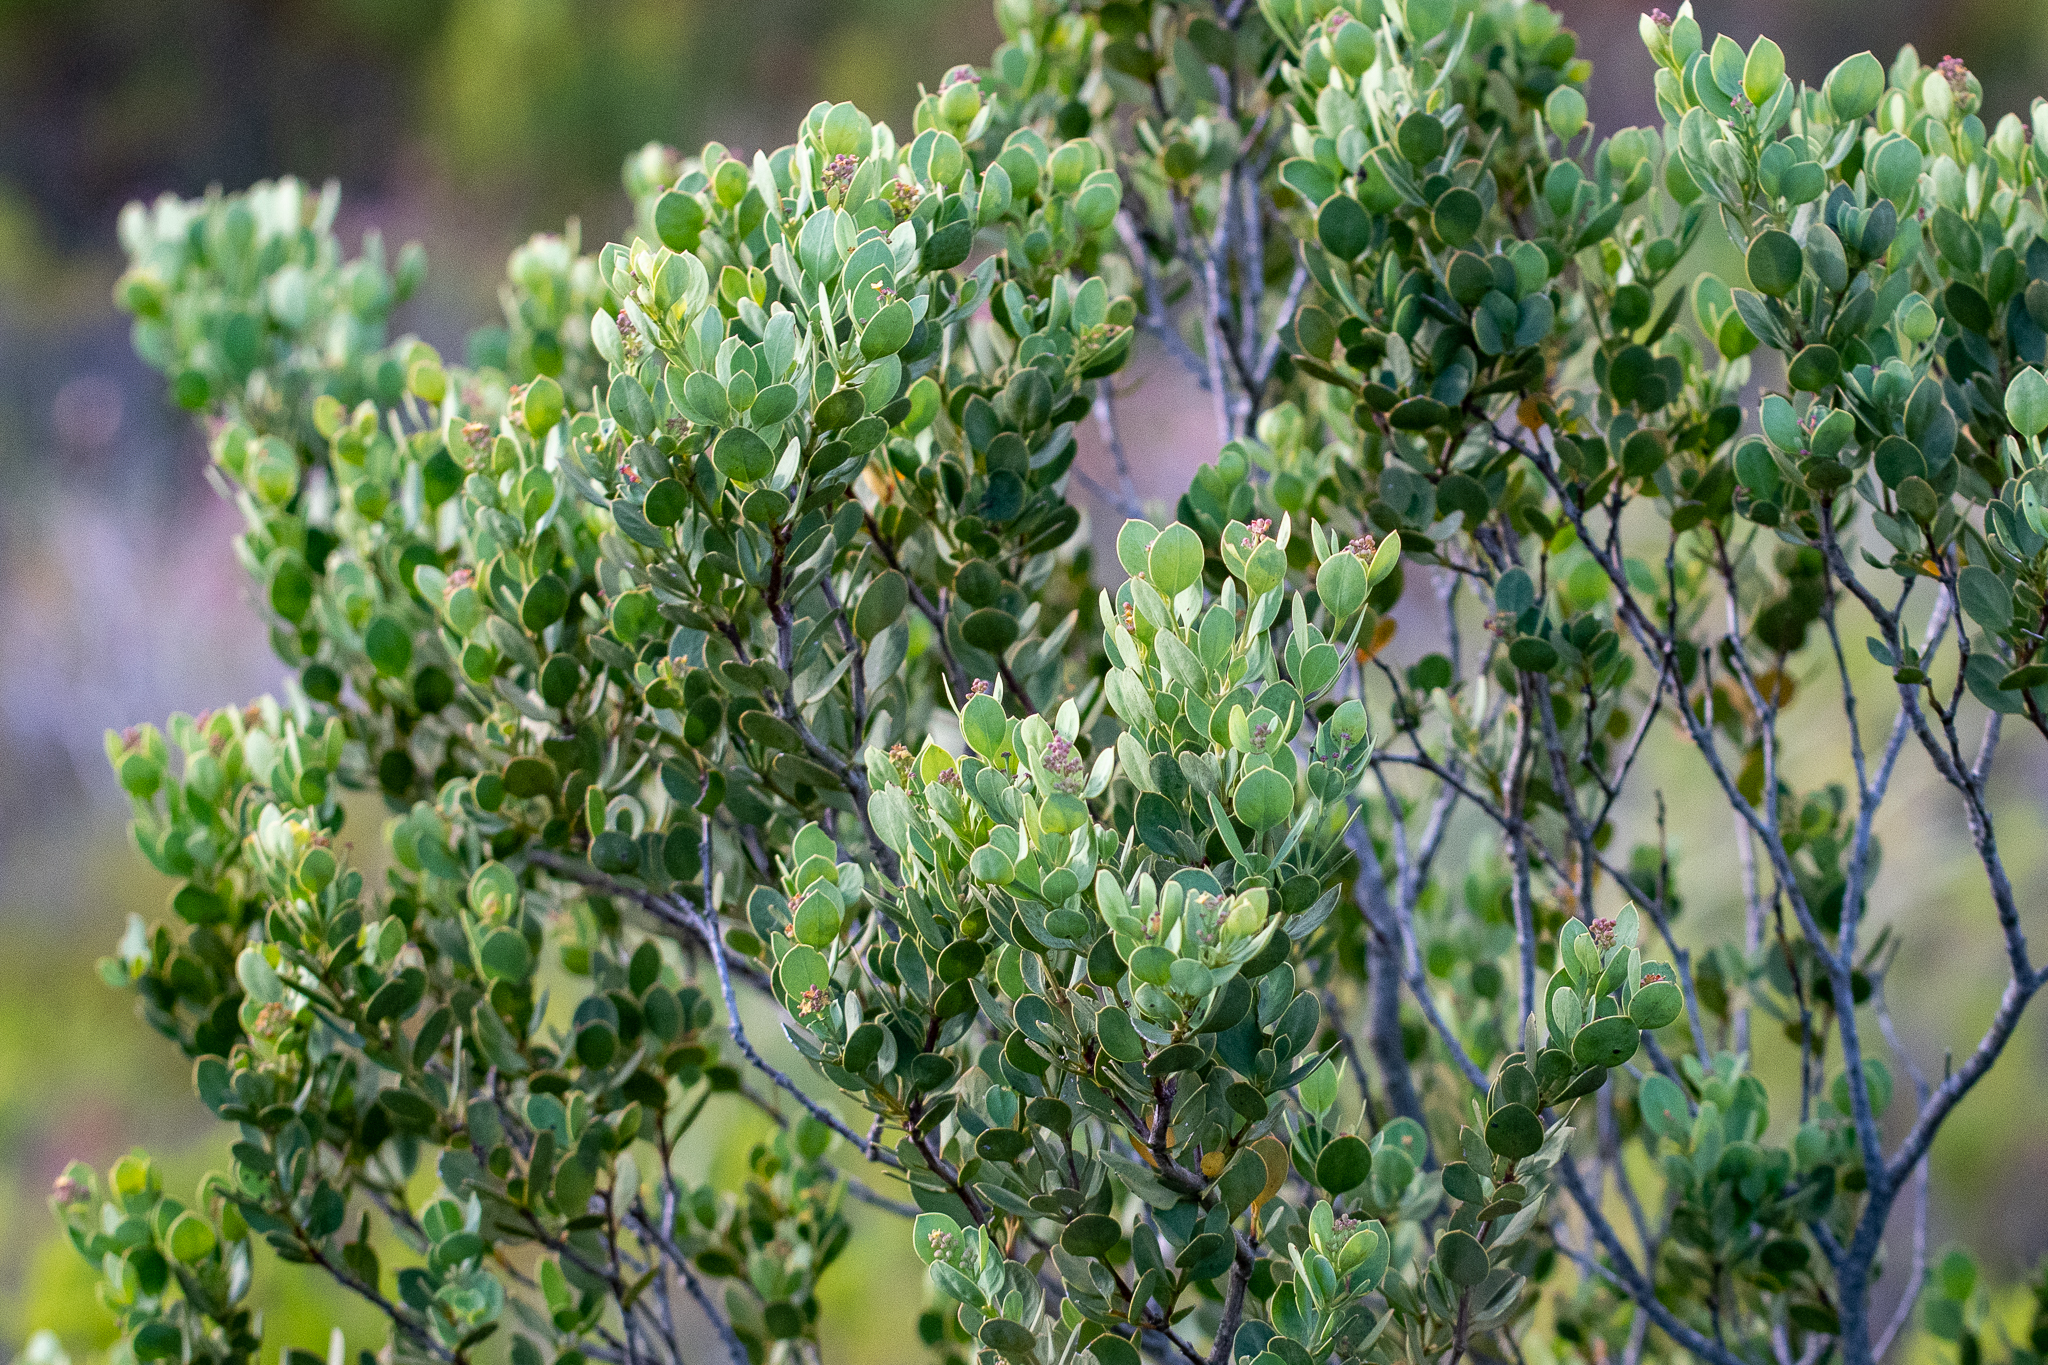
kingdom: Plantae
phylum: Tracheophyta
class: Magnoliopsida
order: Santalales
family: Santalaceae
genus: Osyris
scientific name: Osyris compressa
